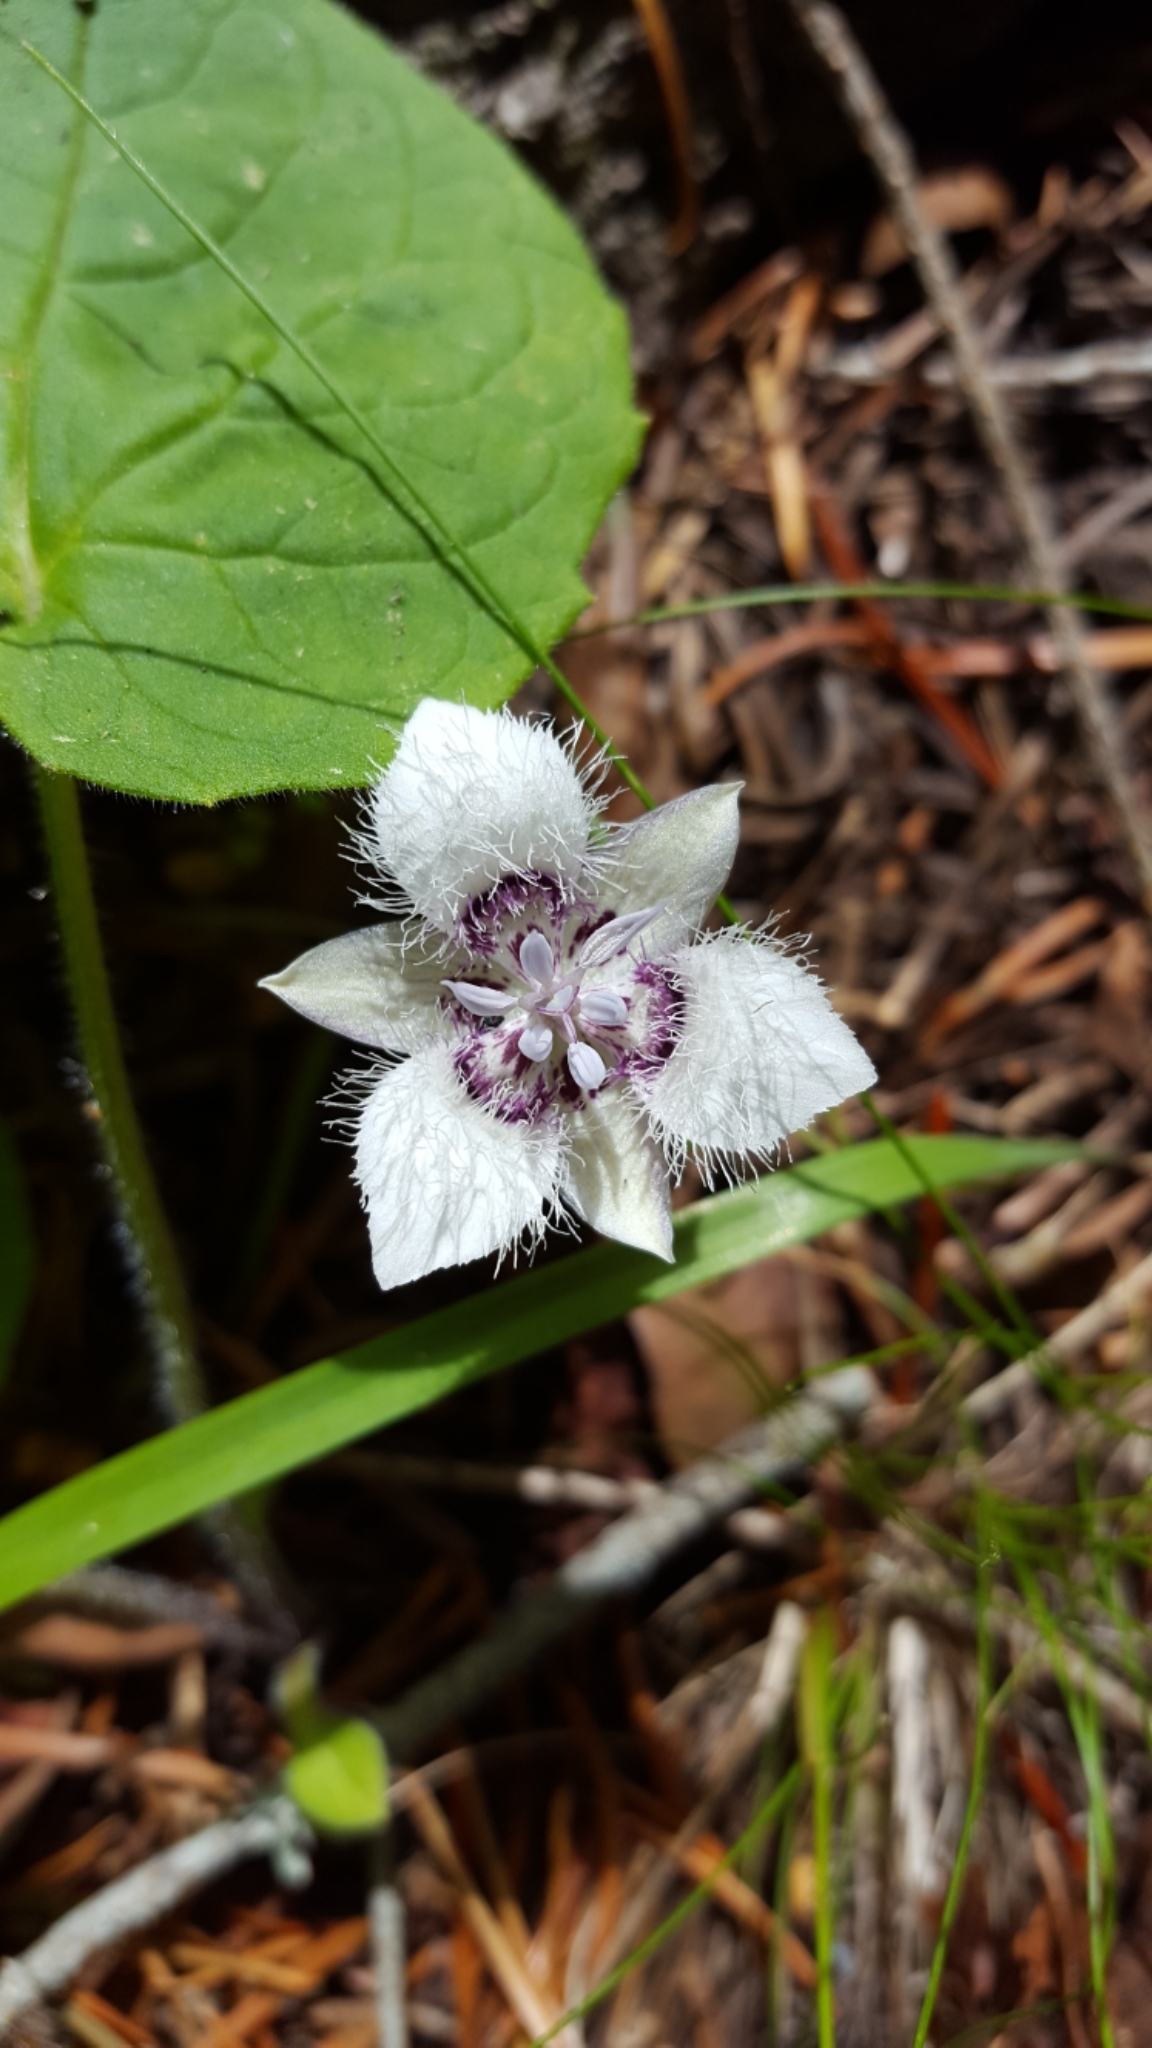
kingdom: Plantae
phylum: Tracheophyta
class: Liliopsida
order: Liliales
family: Liliaceae
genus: Calochortus
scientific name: Calochortus elegans
